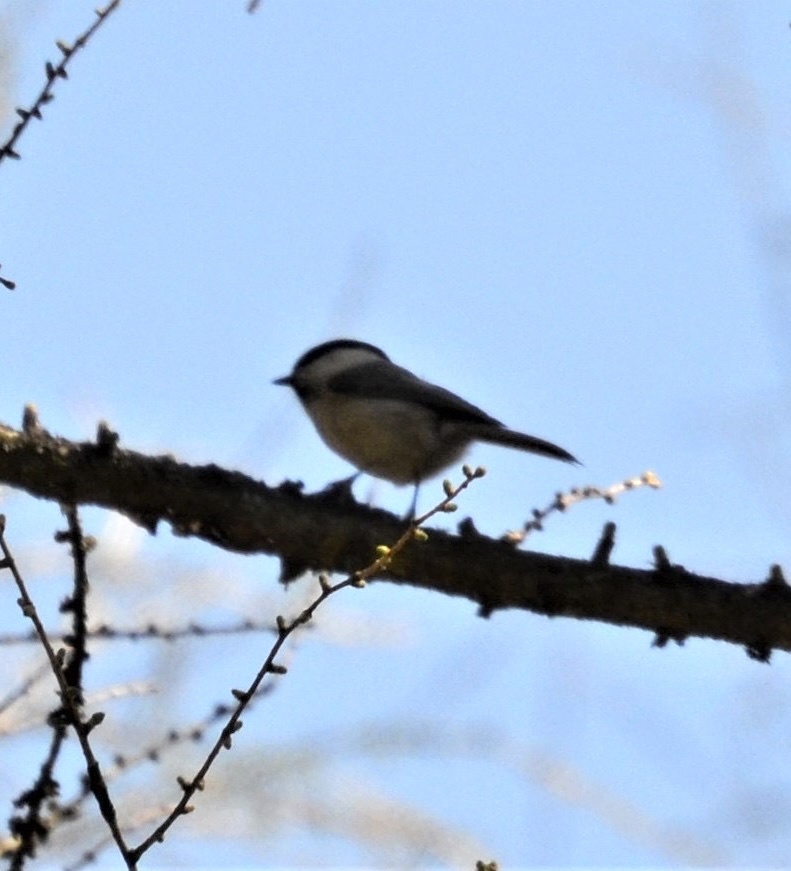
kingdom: Animalia
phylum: Chordata
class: Aves
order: Passeriformes
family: Paridae
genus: Poecile
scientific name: Poecile montanus
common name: Willow tit
